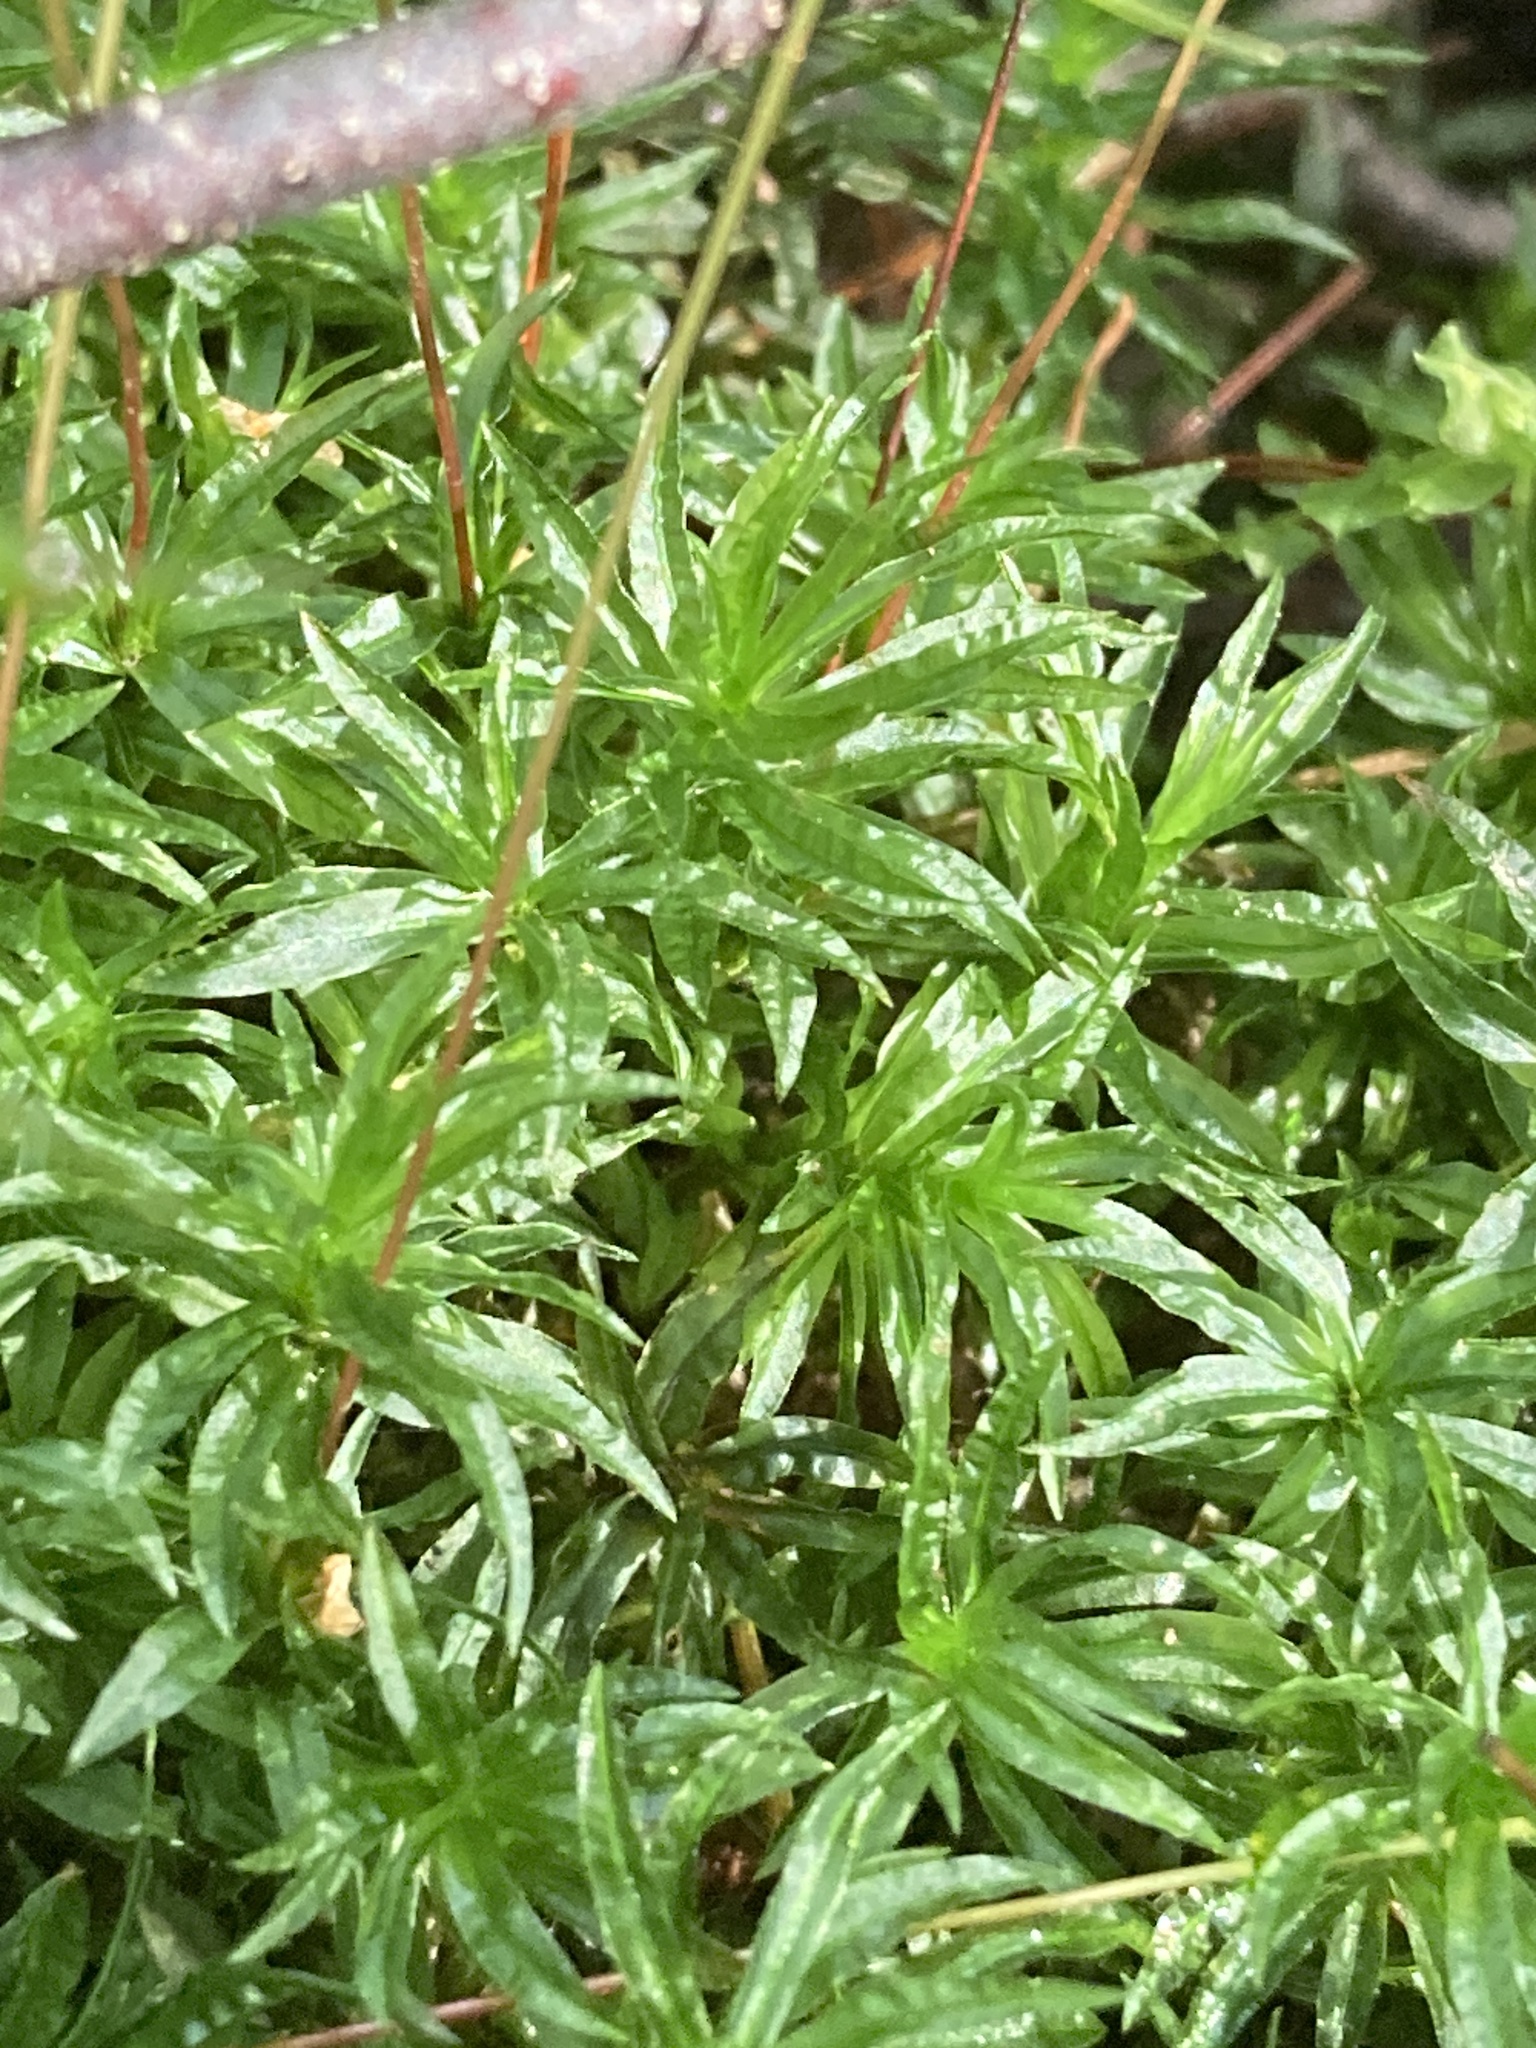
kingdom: Plantae
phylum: Bryophyta
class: Polytrichopsida
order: Polytrichales
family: Polytrichaceae
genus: Atrichum
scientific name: Atrichum undulatum
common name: Common smoothcap
